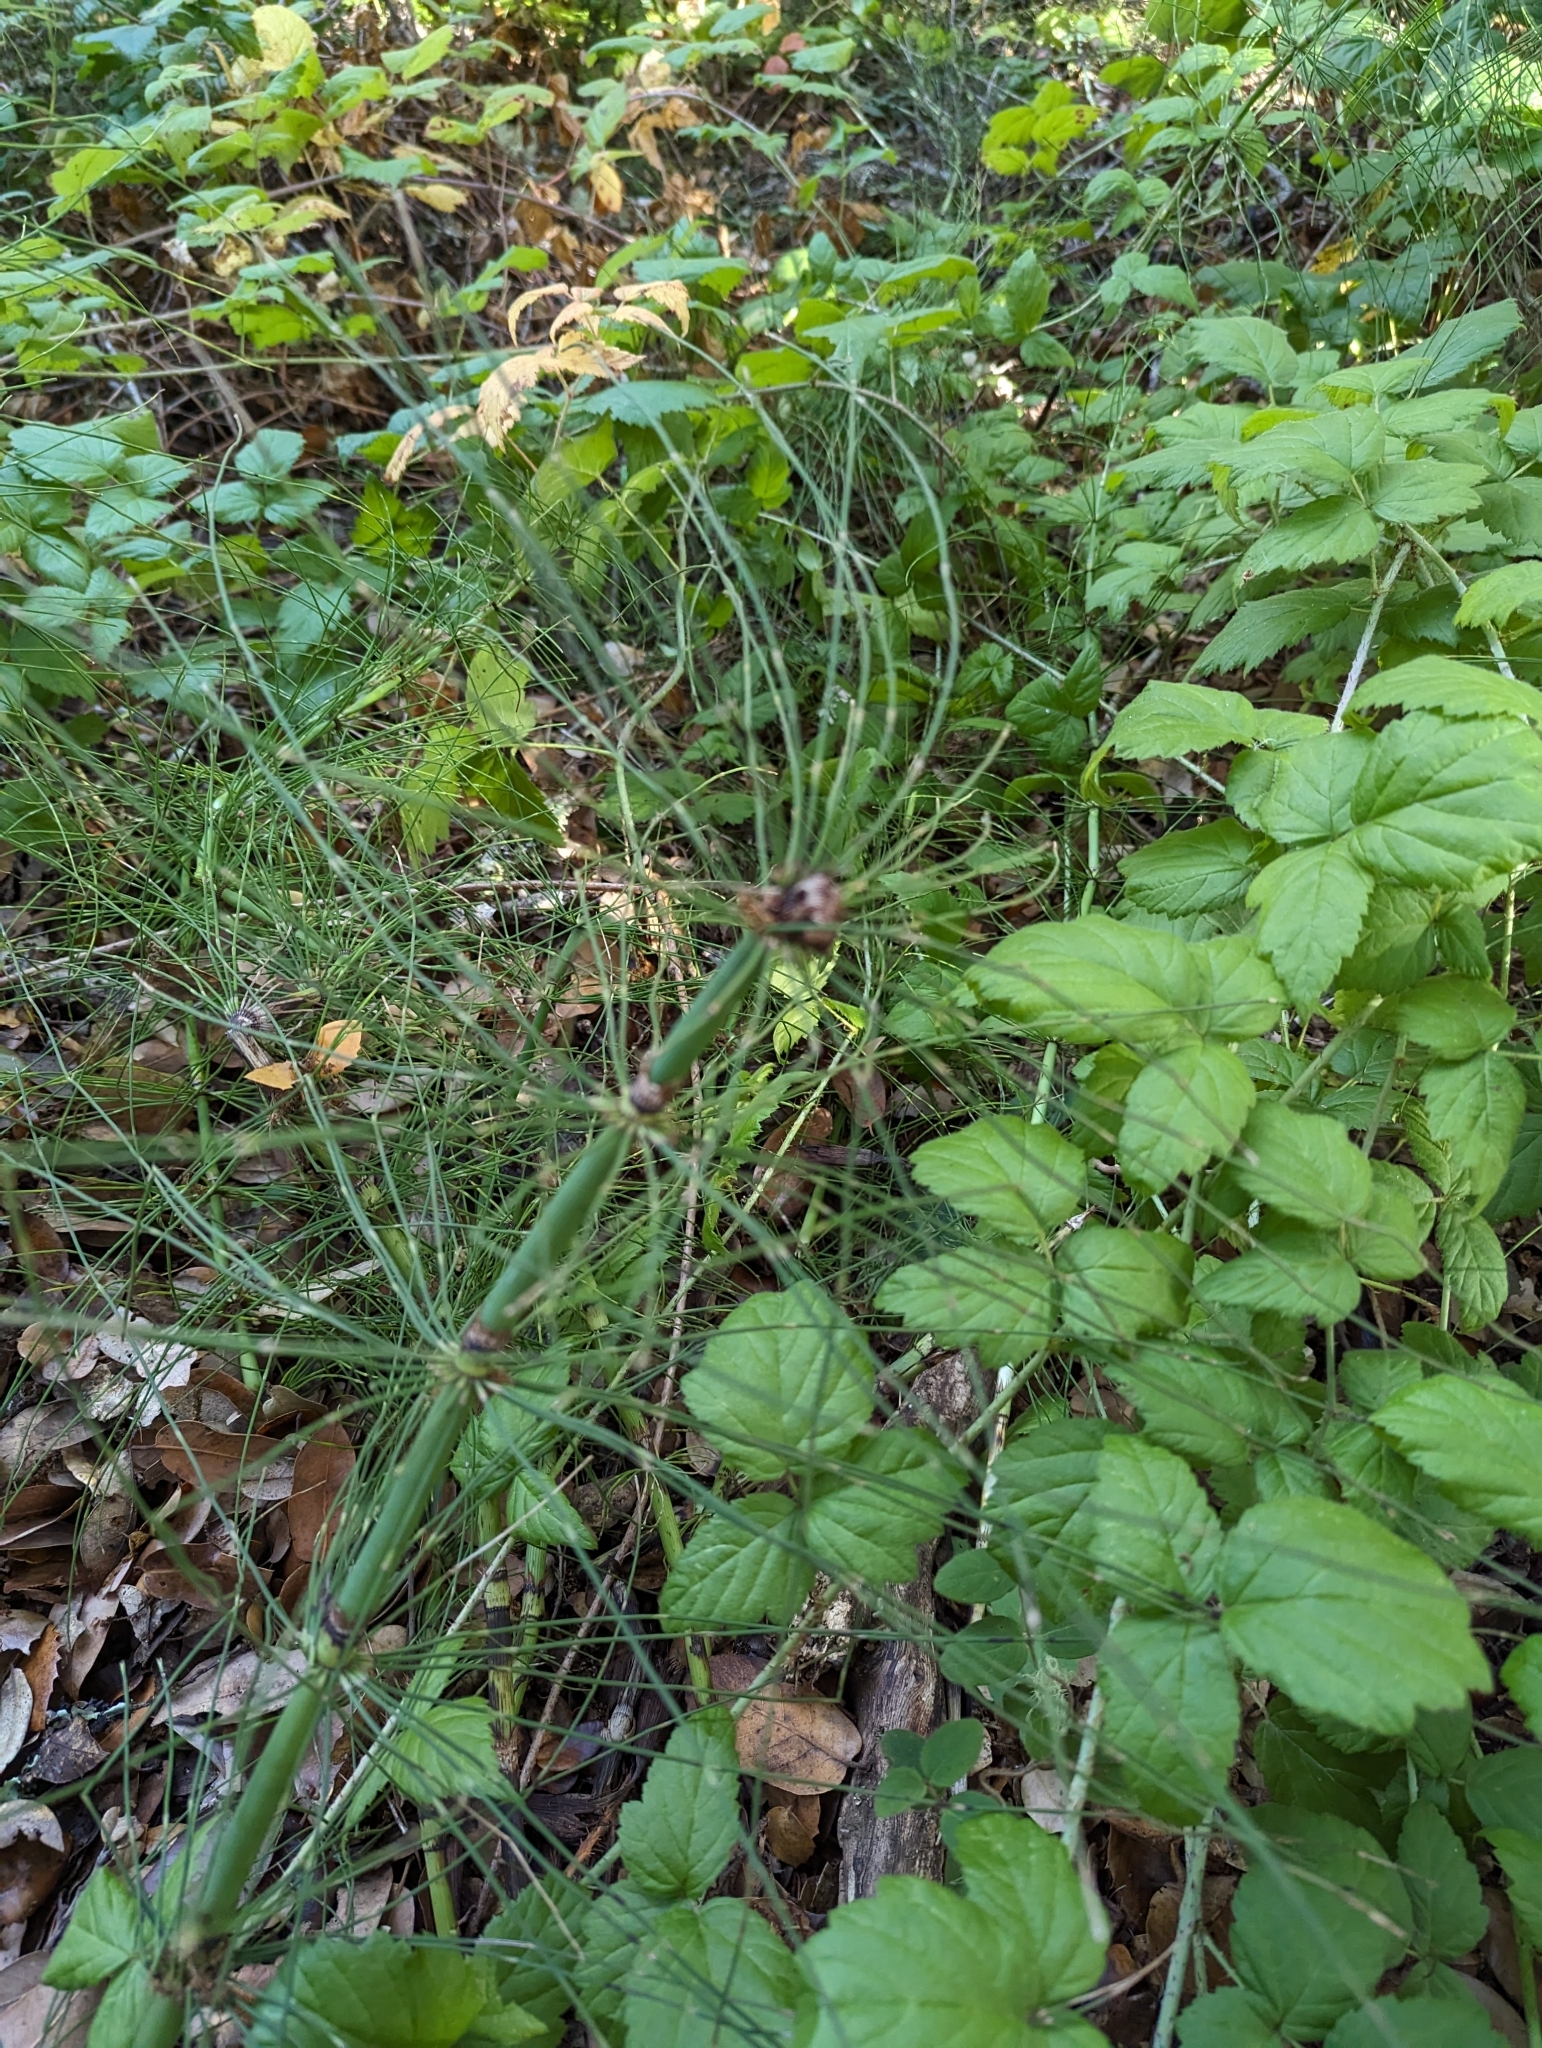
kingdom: Plantae
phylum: Tracheophyta
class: Polypodiopsida
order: Equisetales
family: Equisetaceae
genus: Equisetum
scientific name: Equisetum telmateia
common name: Great horsetail
